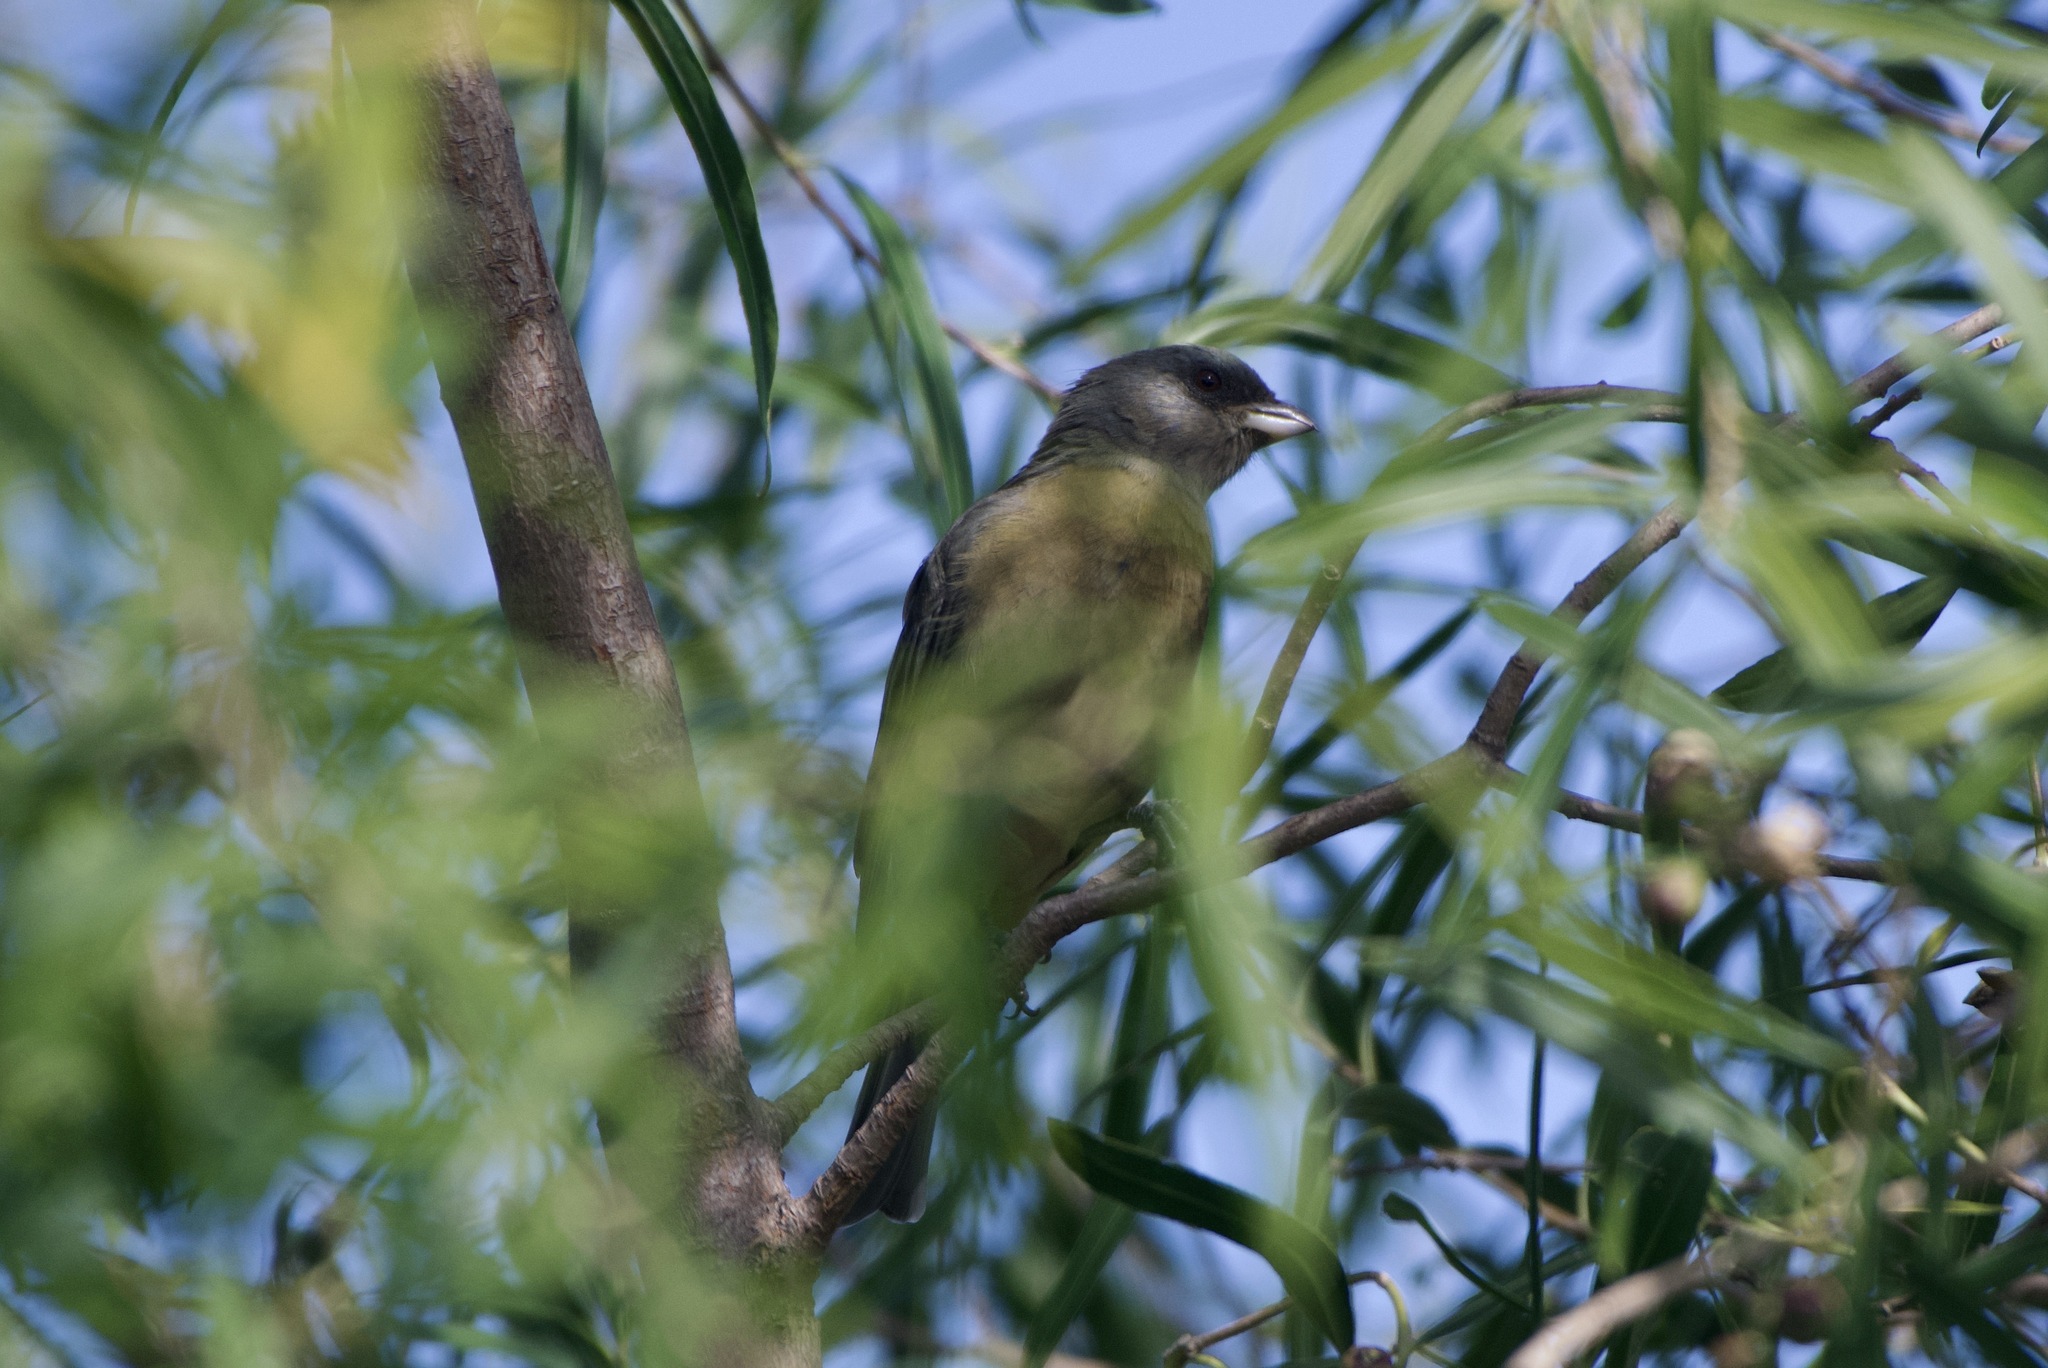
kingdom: Animalia
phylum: Chordata
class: Aves
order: Passeriformes
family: Thraupidae
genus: Rauenia
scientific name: Rauenia bonariensis
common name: Blue-and-yellow tanager
